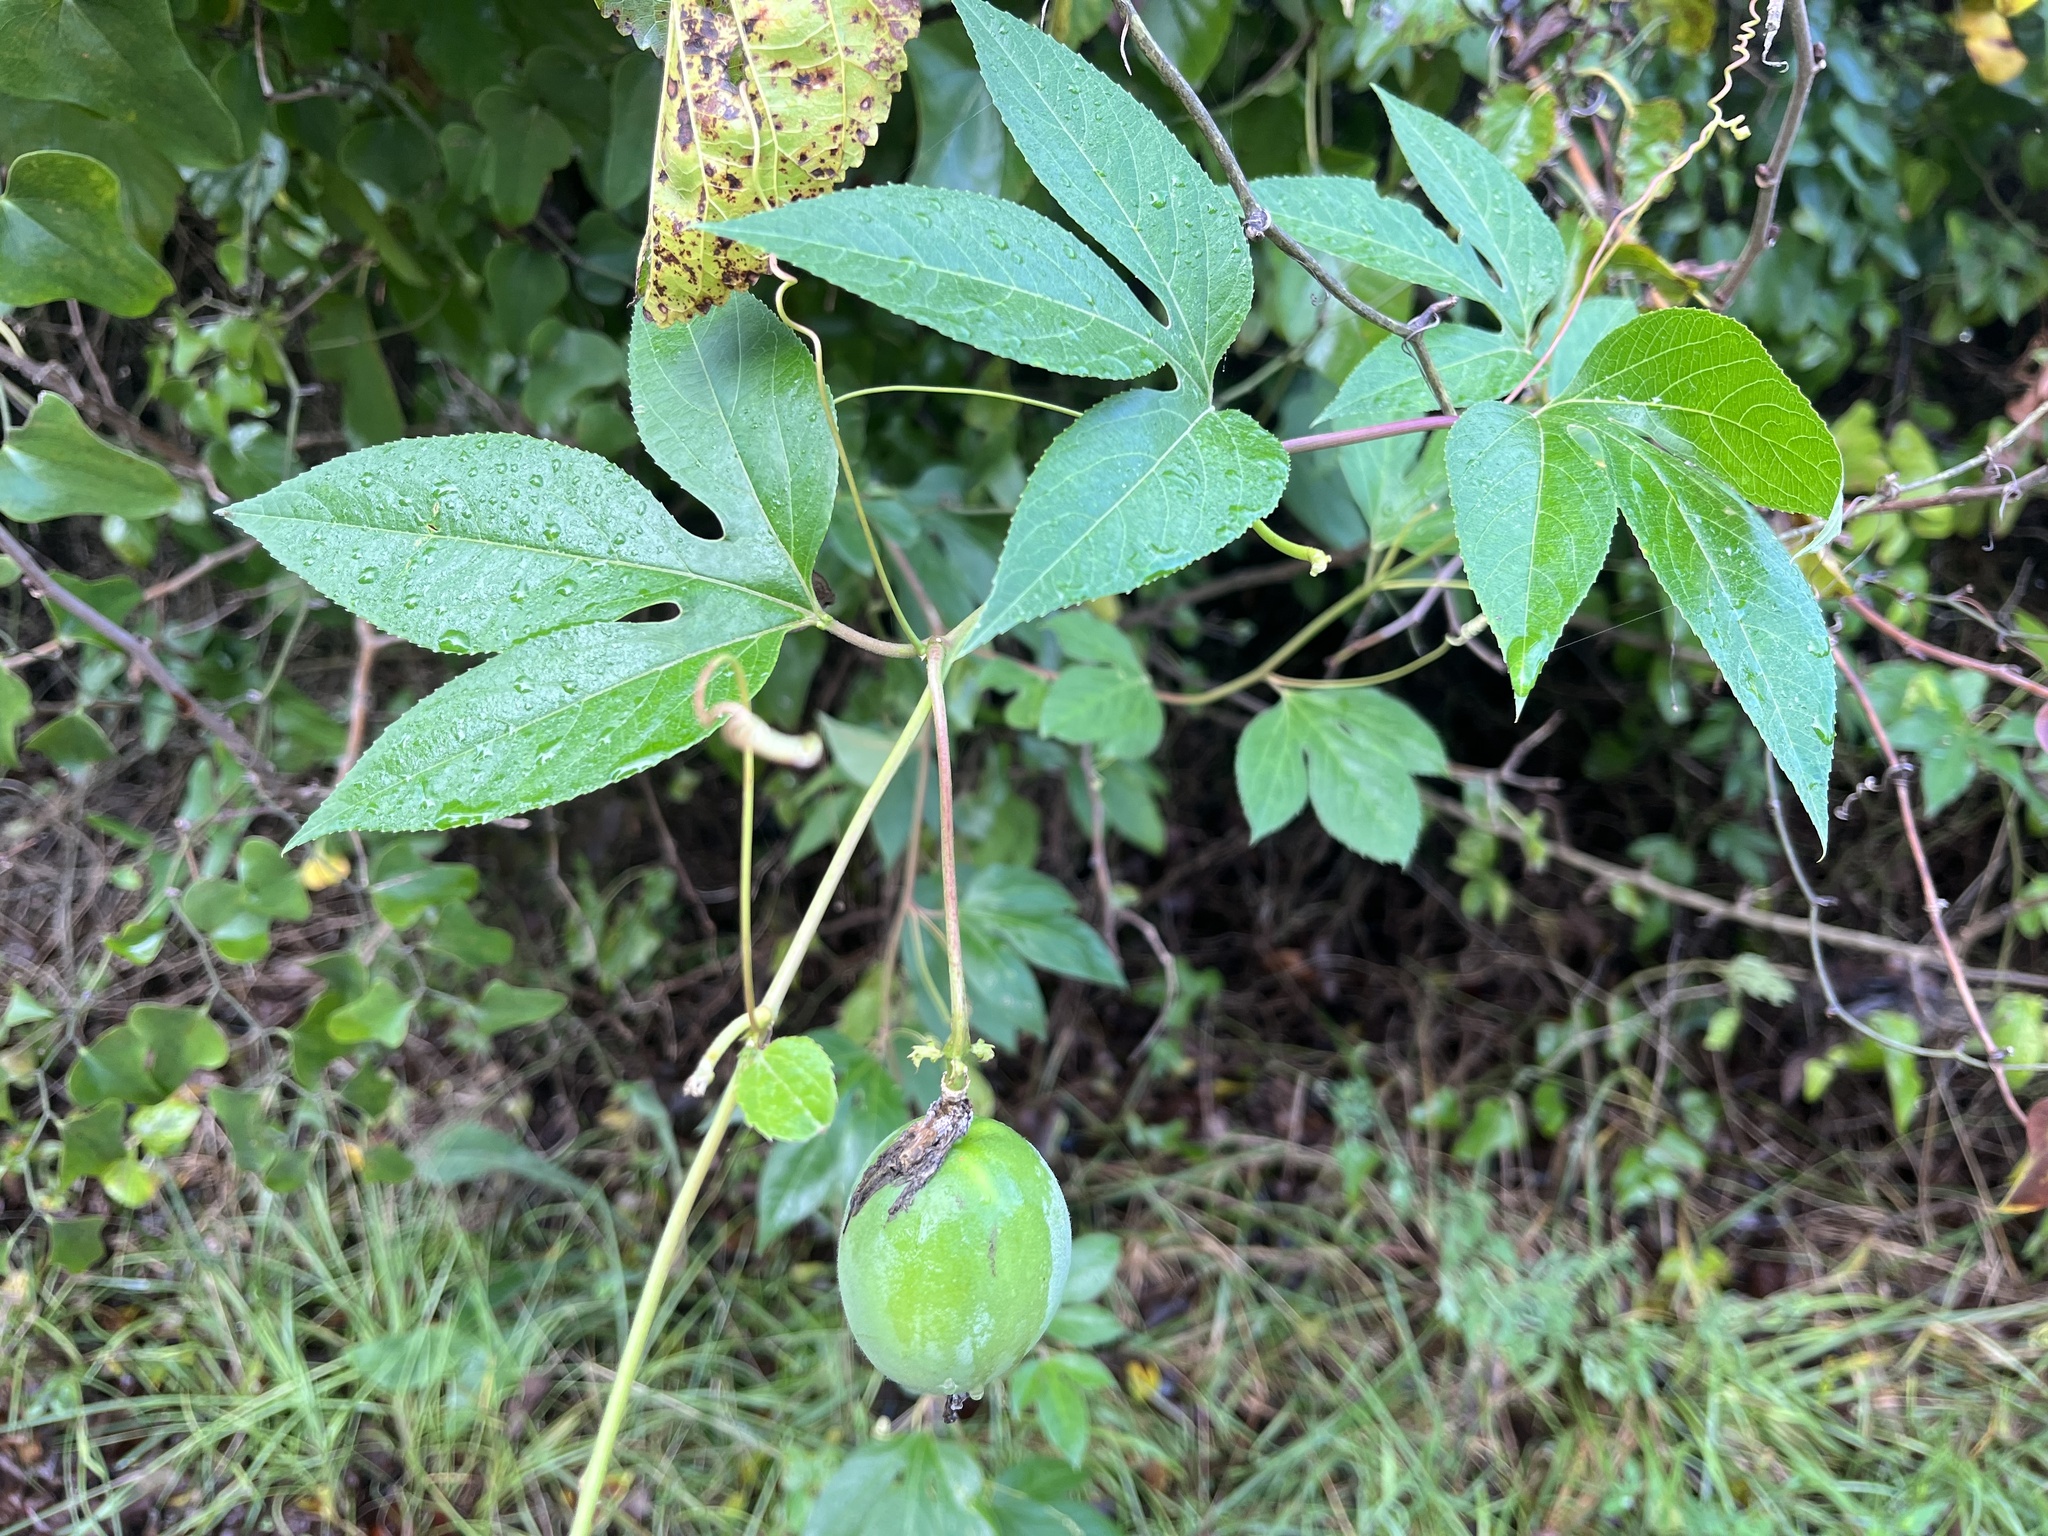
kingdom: Plantae
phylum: Tracheophyta
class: Magnoliopsida
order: Malpighiales
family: Passifloraceae
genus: Passiflora
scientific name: Passiflora incarnata
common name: Apricot-vine
